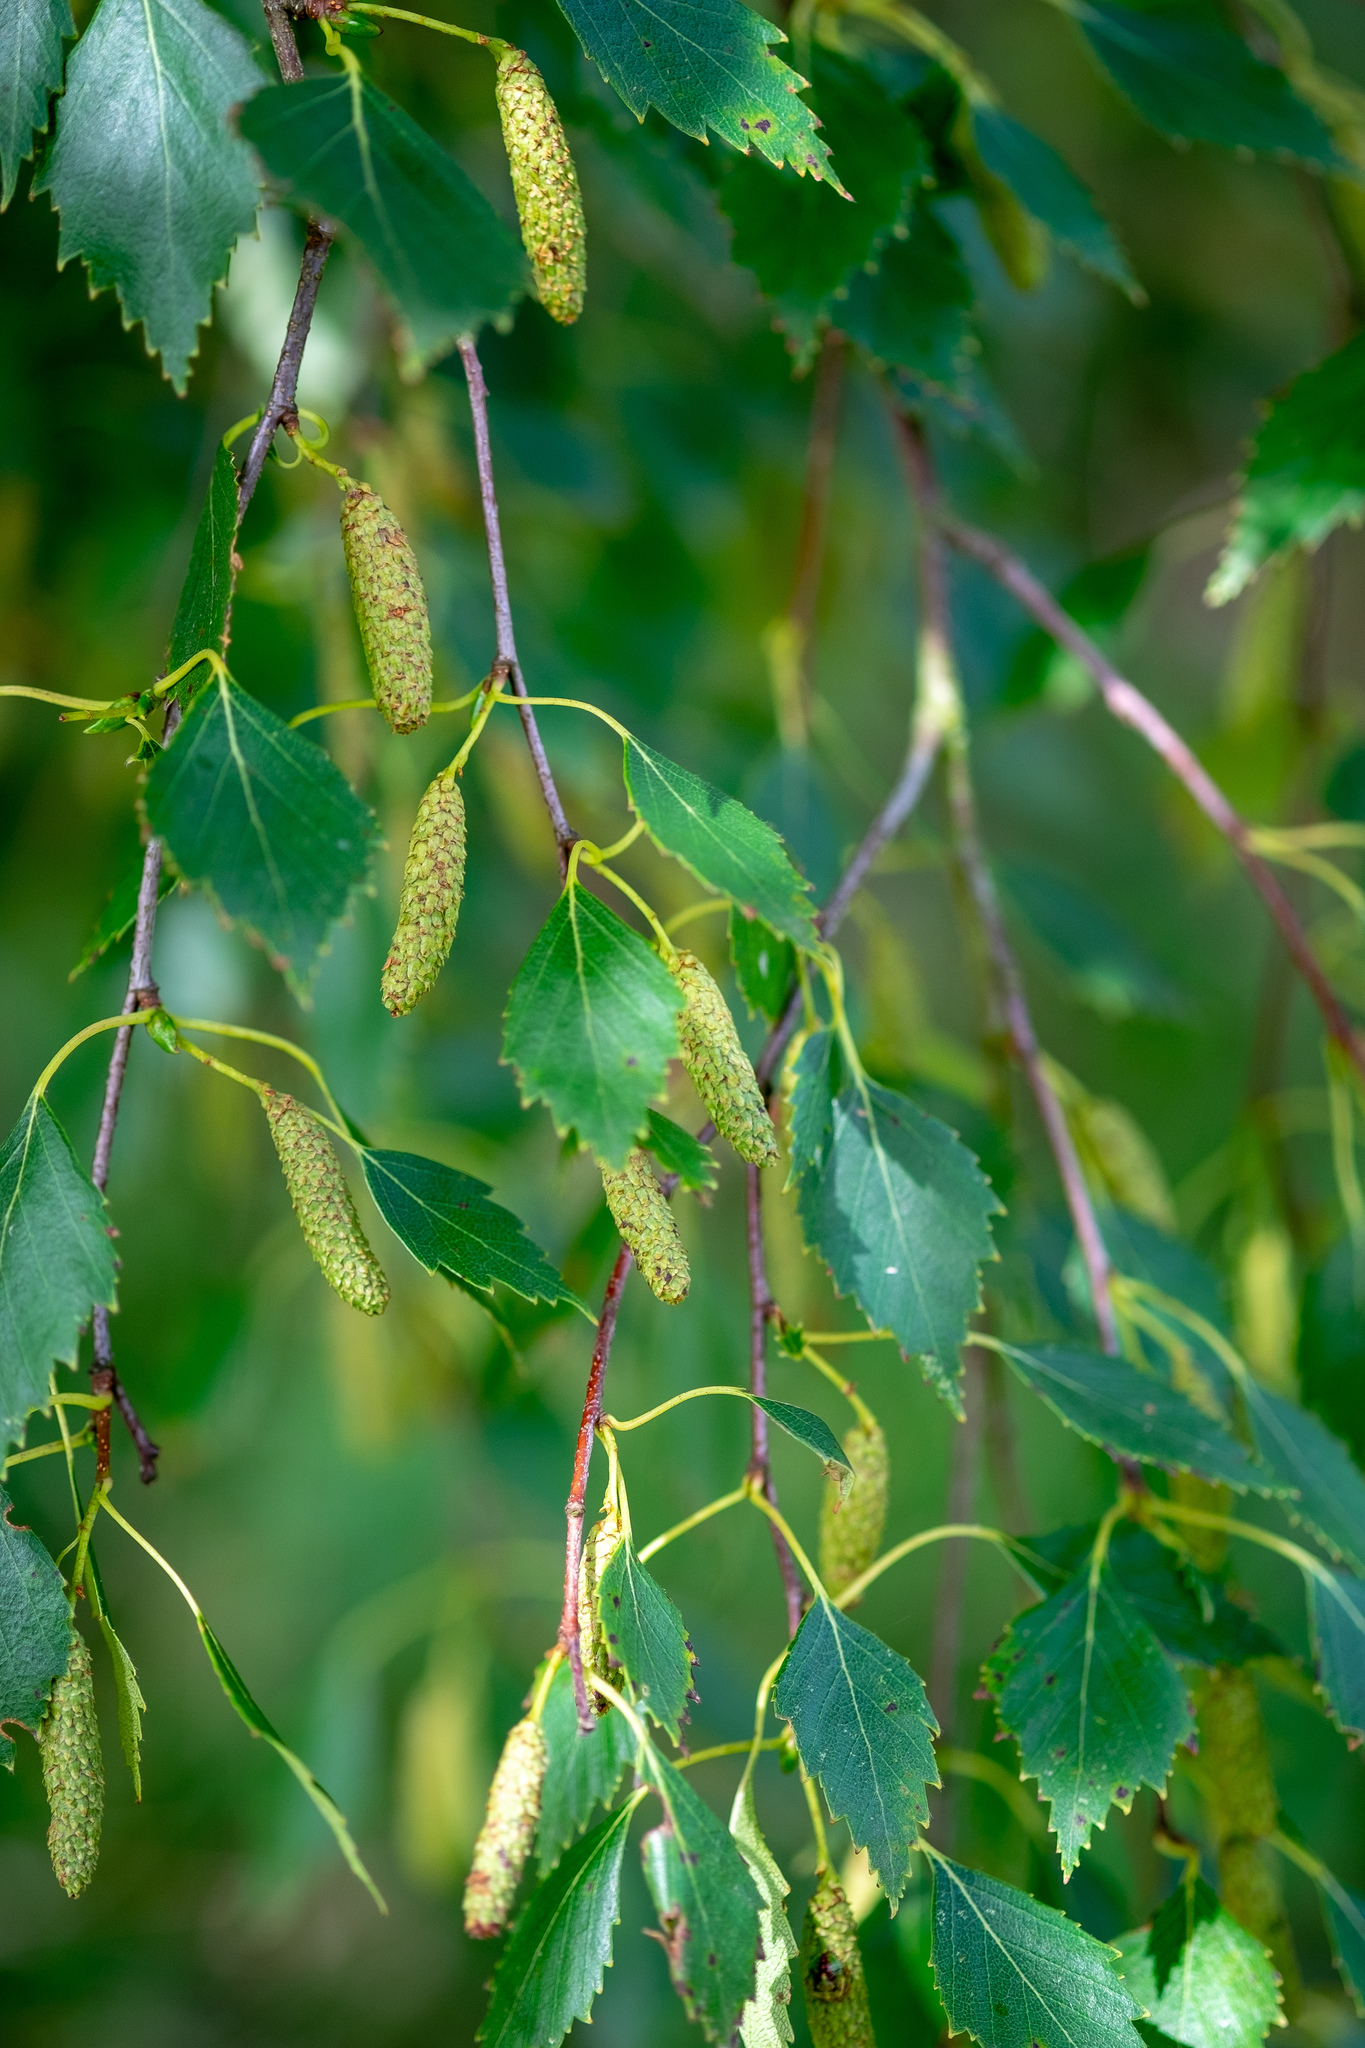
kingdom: Plantae
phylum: Tracheophyta
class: Magnoliopsida
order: Fagales
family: Betulaceae
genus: Betula
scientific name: Betula pendula
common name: Silver birch
